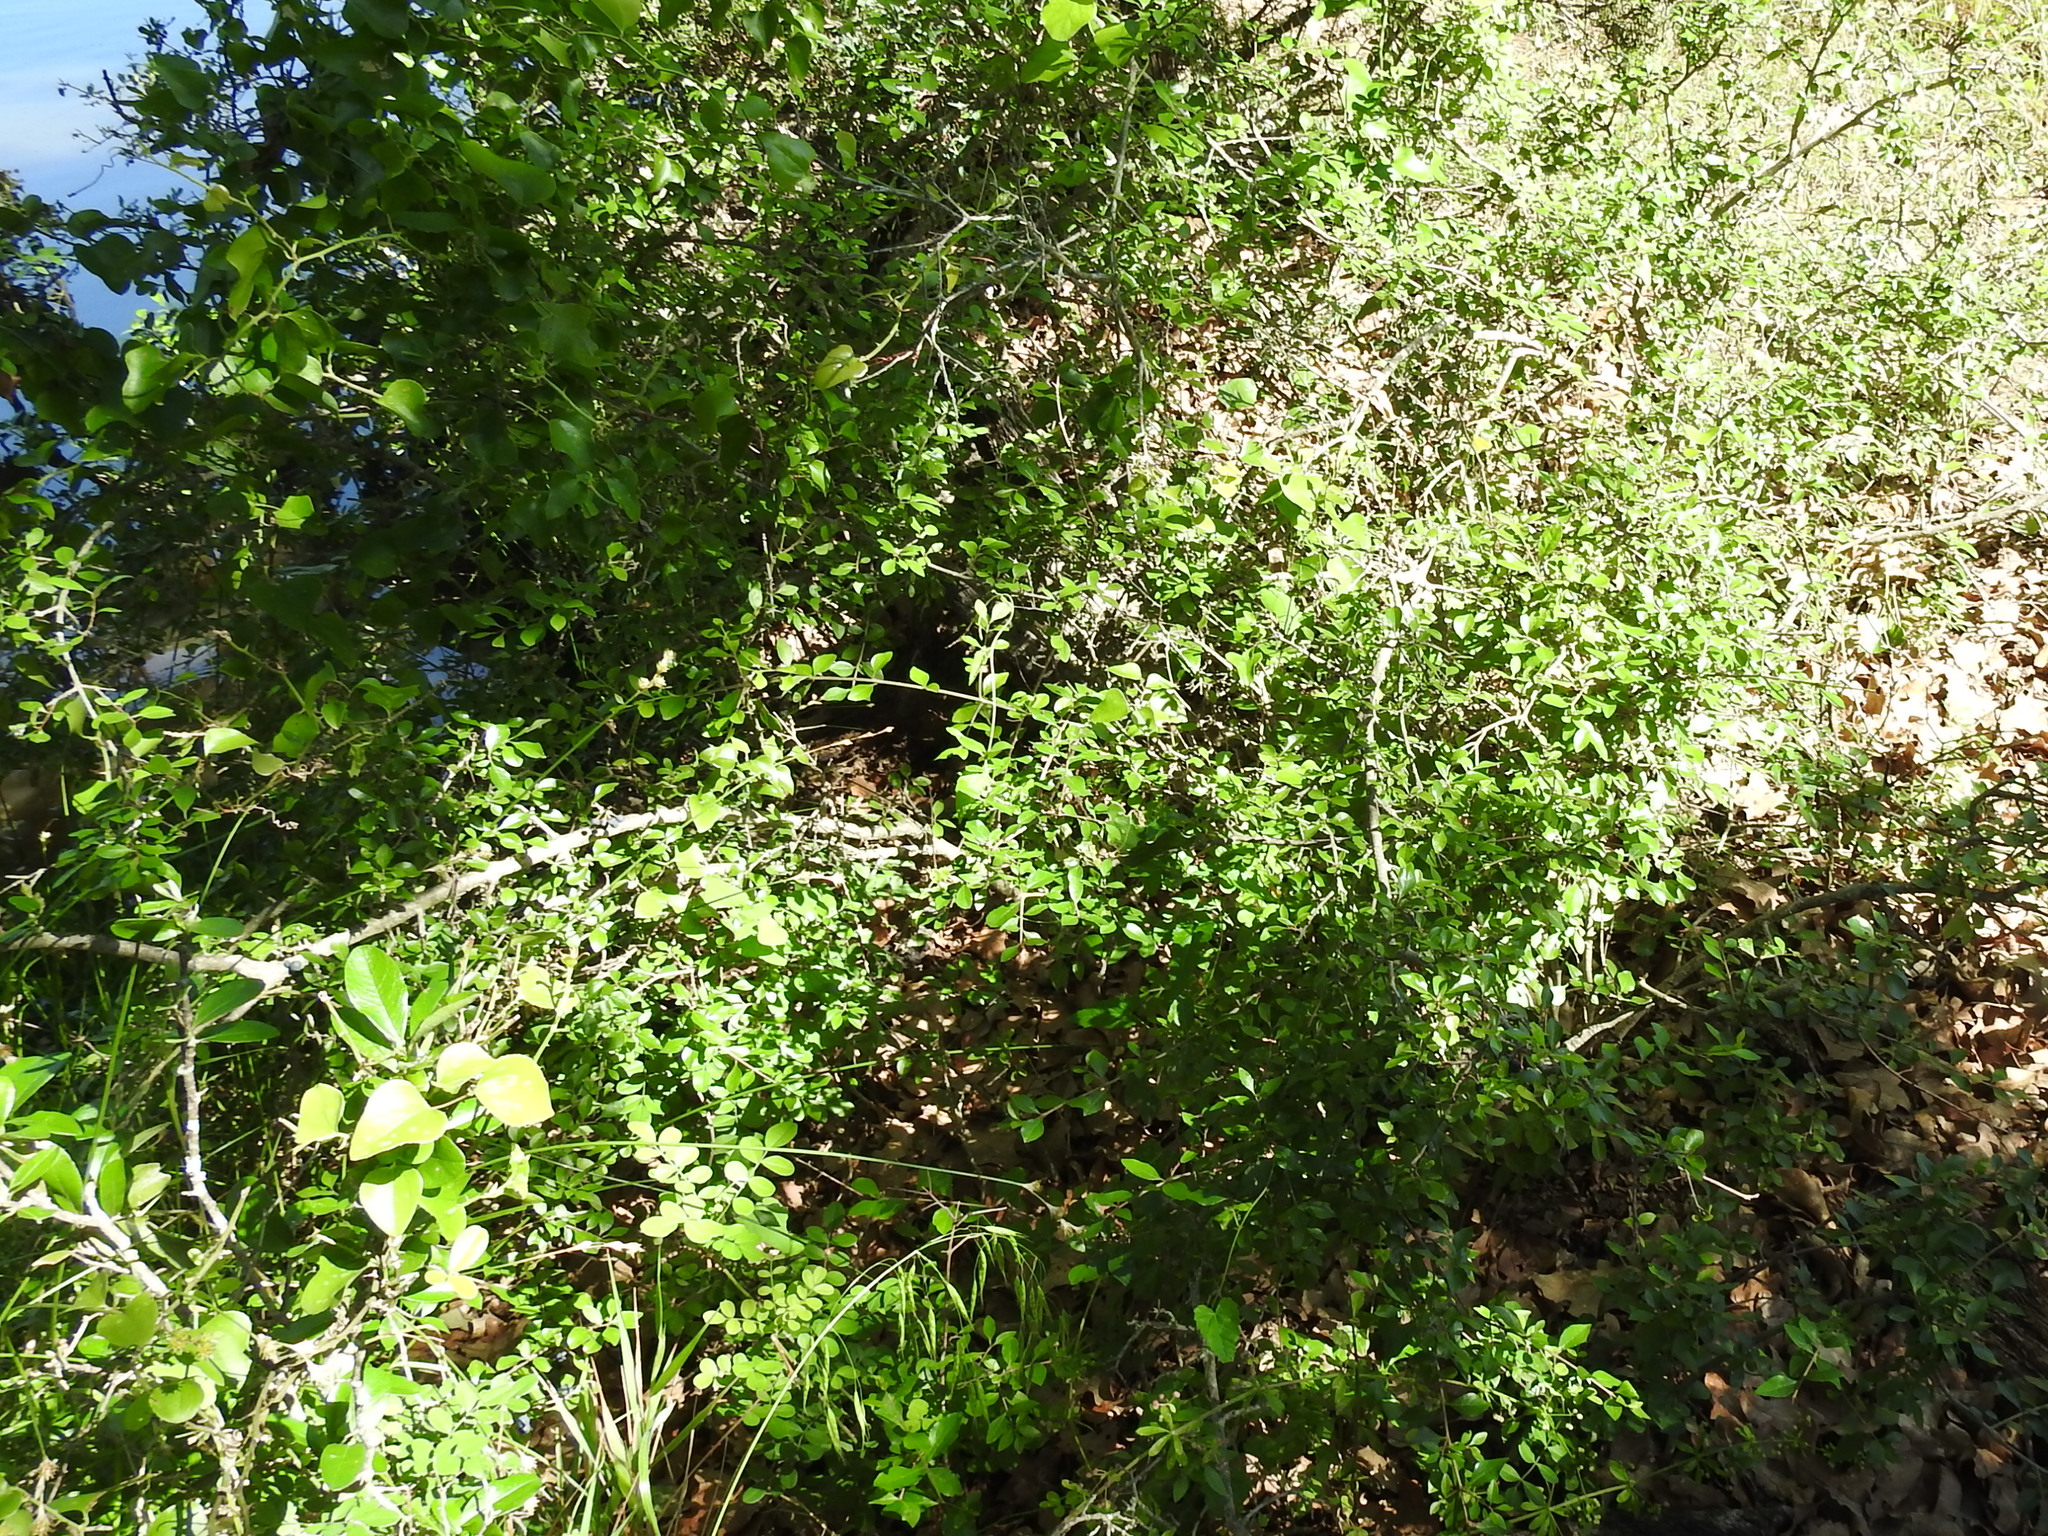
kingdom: Plantae
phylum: Tracheophyta
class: Magnoliopsida
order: Lamiales
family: Oleaceae
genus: Forestiera
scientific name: Forestiera pubescens
